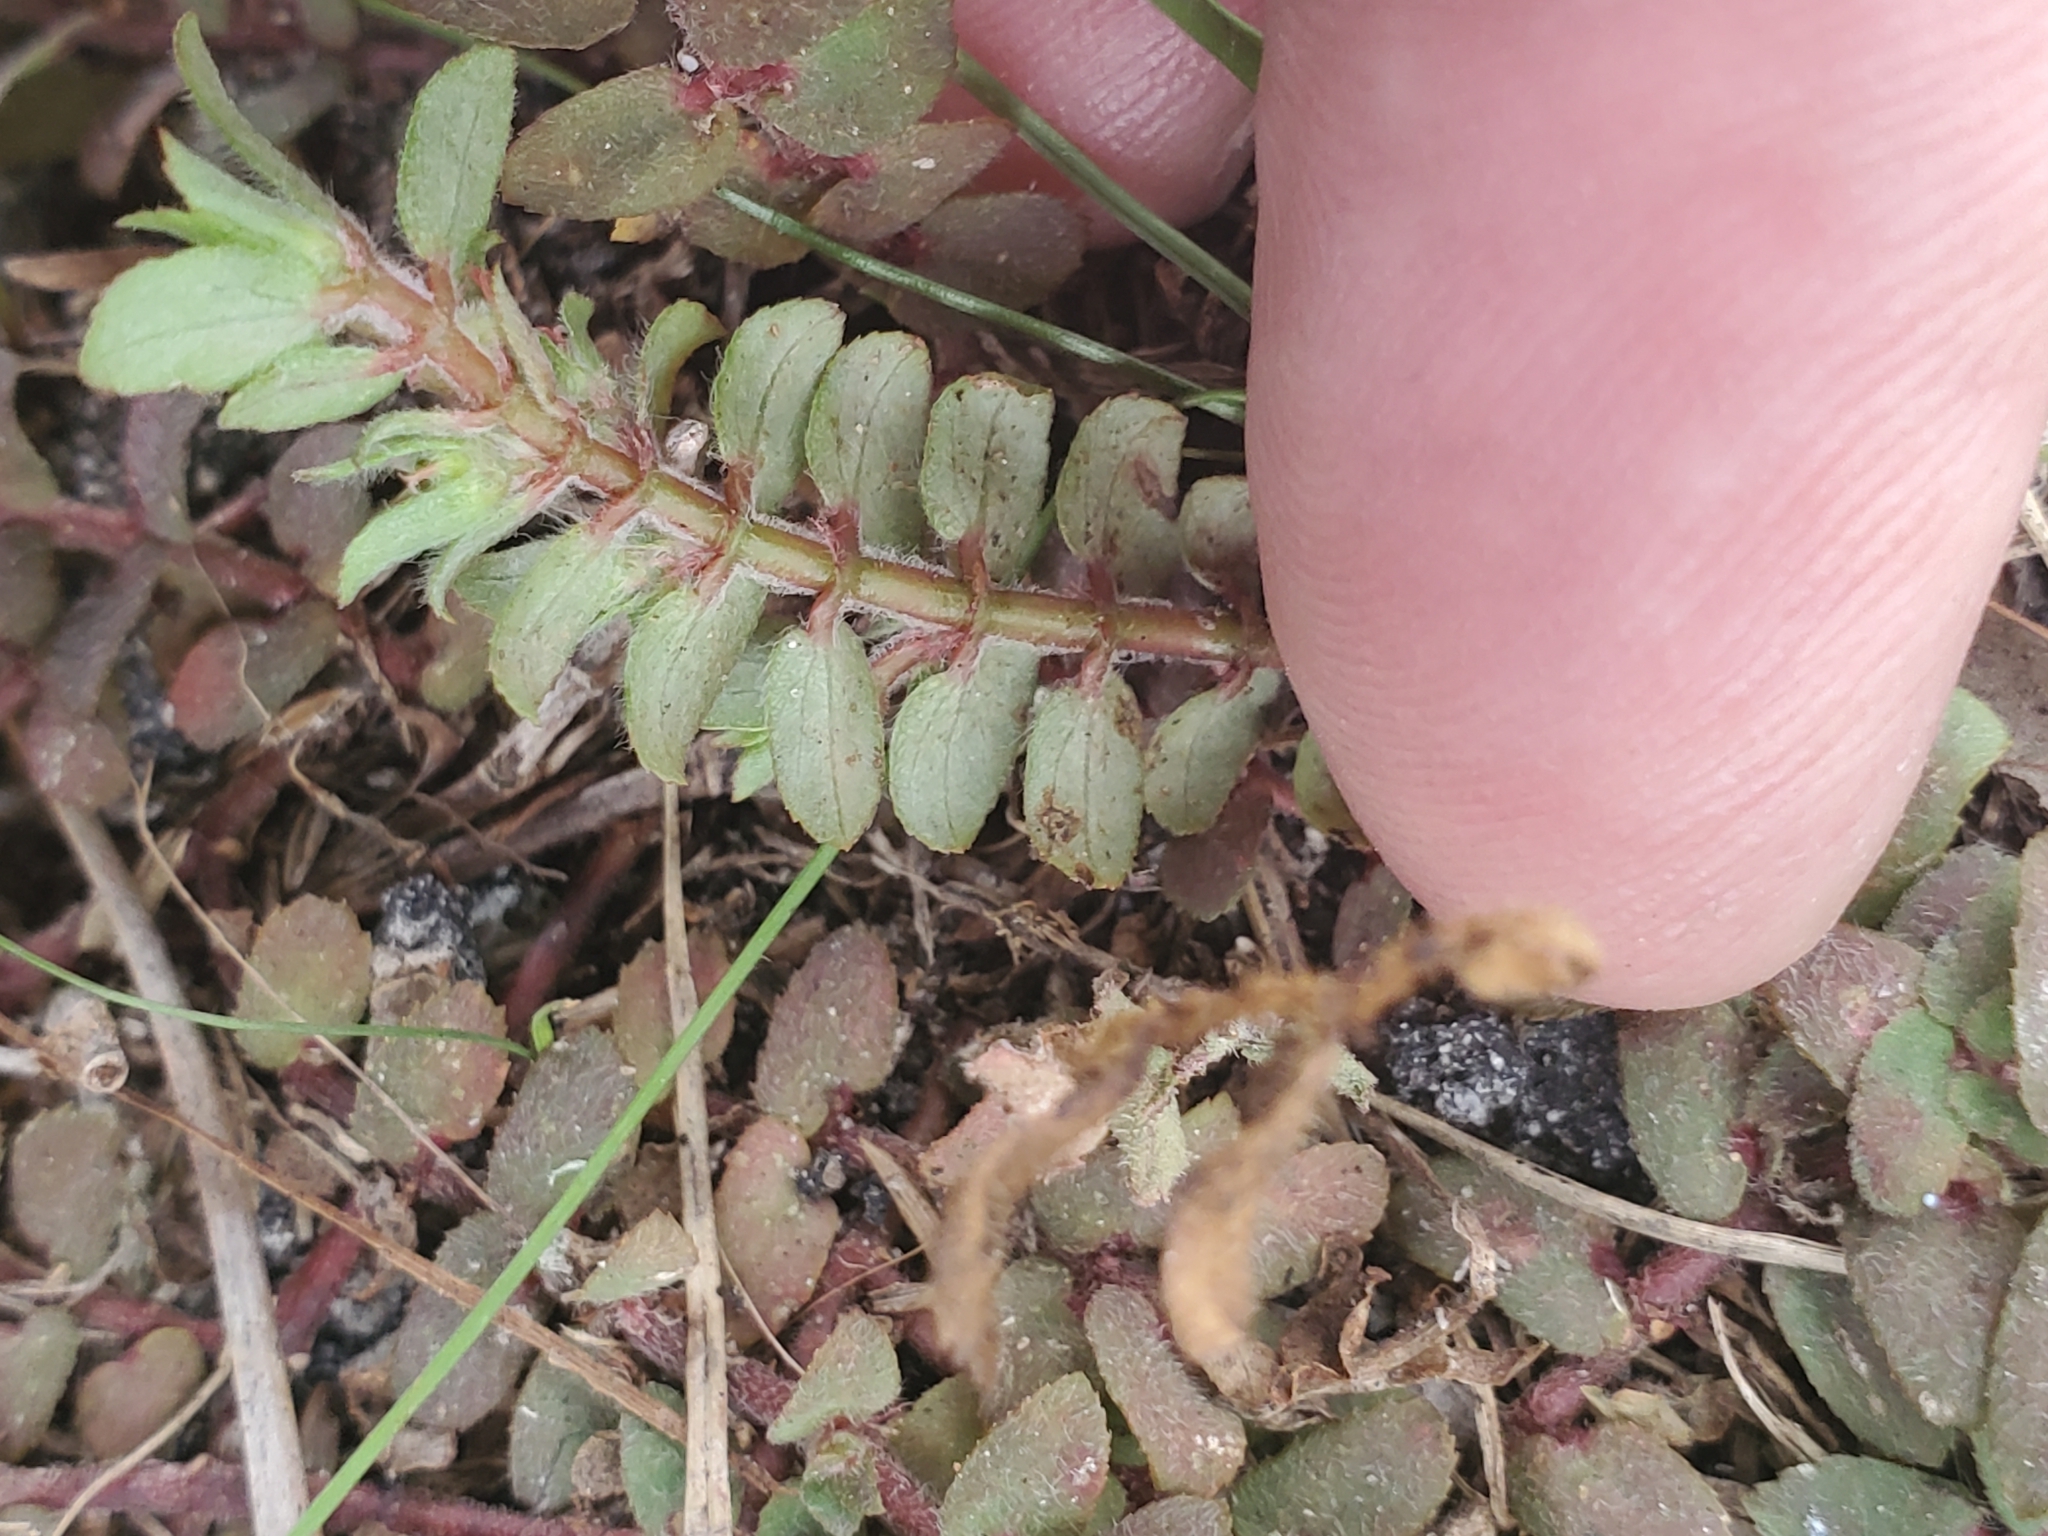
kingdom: Plantae
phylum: Tracheophyta
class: Magnoliopsida
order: Malpighiales
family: Euphorbiaceae
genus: Euphorbia
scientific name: Euphorbia dioeca
